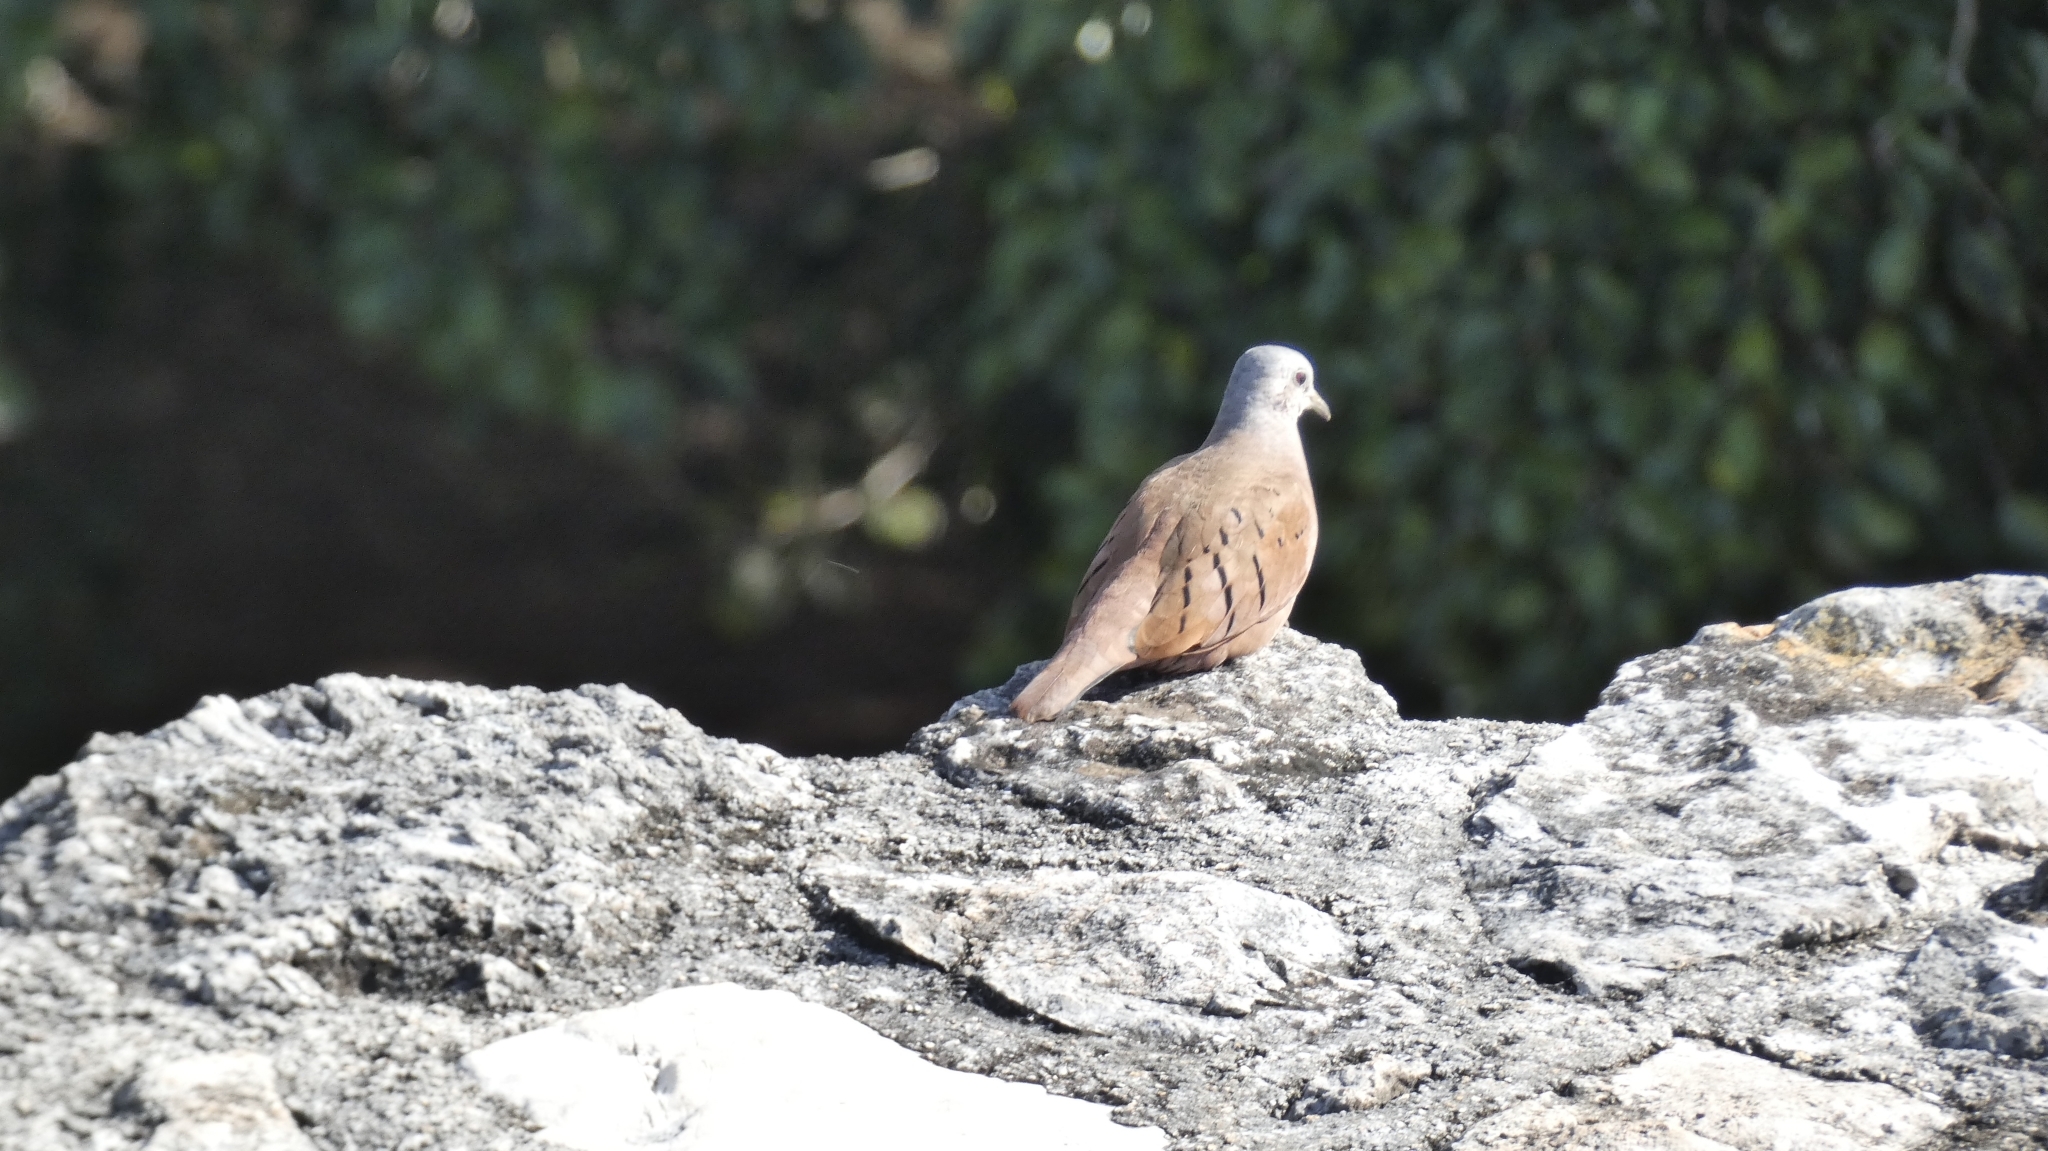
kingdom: Animalia
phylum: Chordata
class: Aves
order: Columbiformes
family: Columbidae
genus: Columbina
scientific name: Columbina talpacoti
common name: Ruddy ground dove
